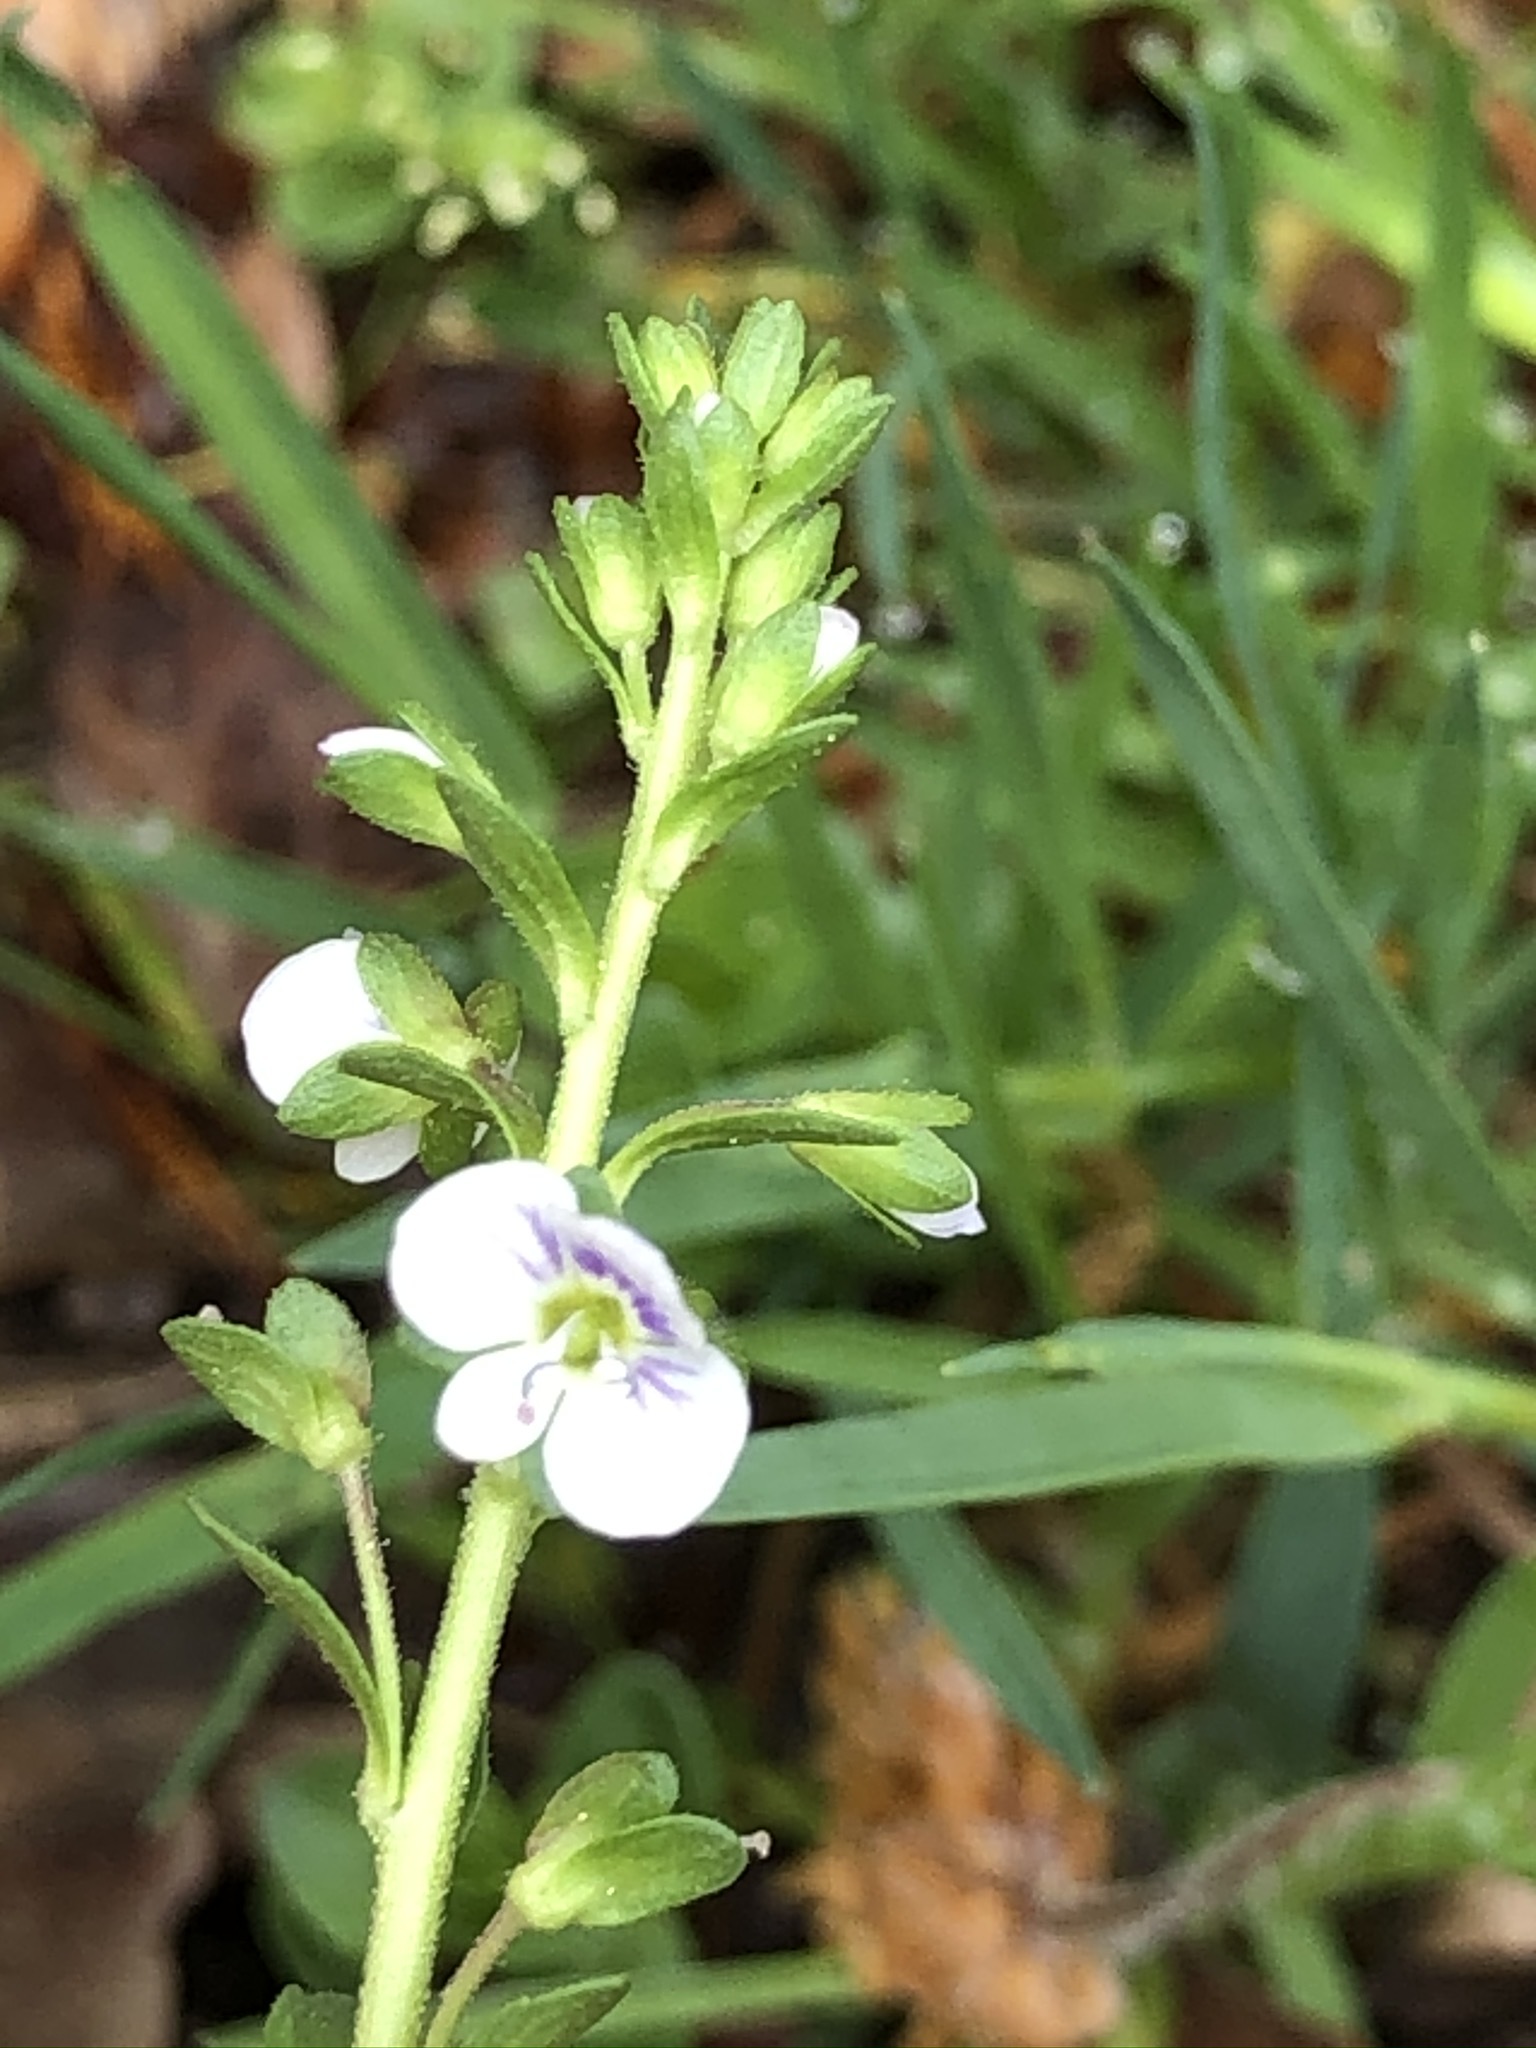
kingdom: Plantae
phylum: Tracheophyta
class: Magnoliopsida
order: Lamiales
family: Plantaginaceae
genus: Veronica
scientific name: Veronica serpyllifolia
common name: Thyme-leaved speedwell
